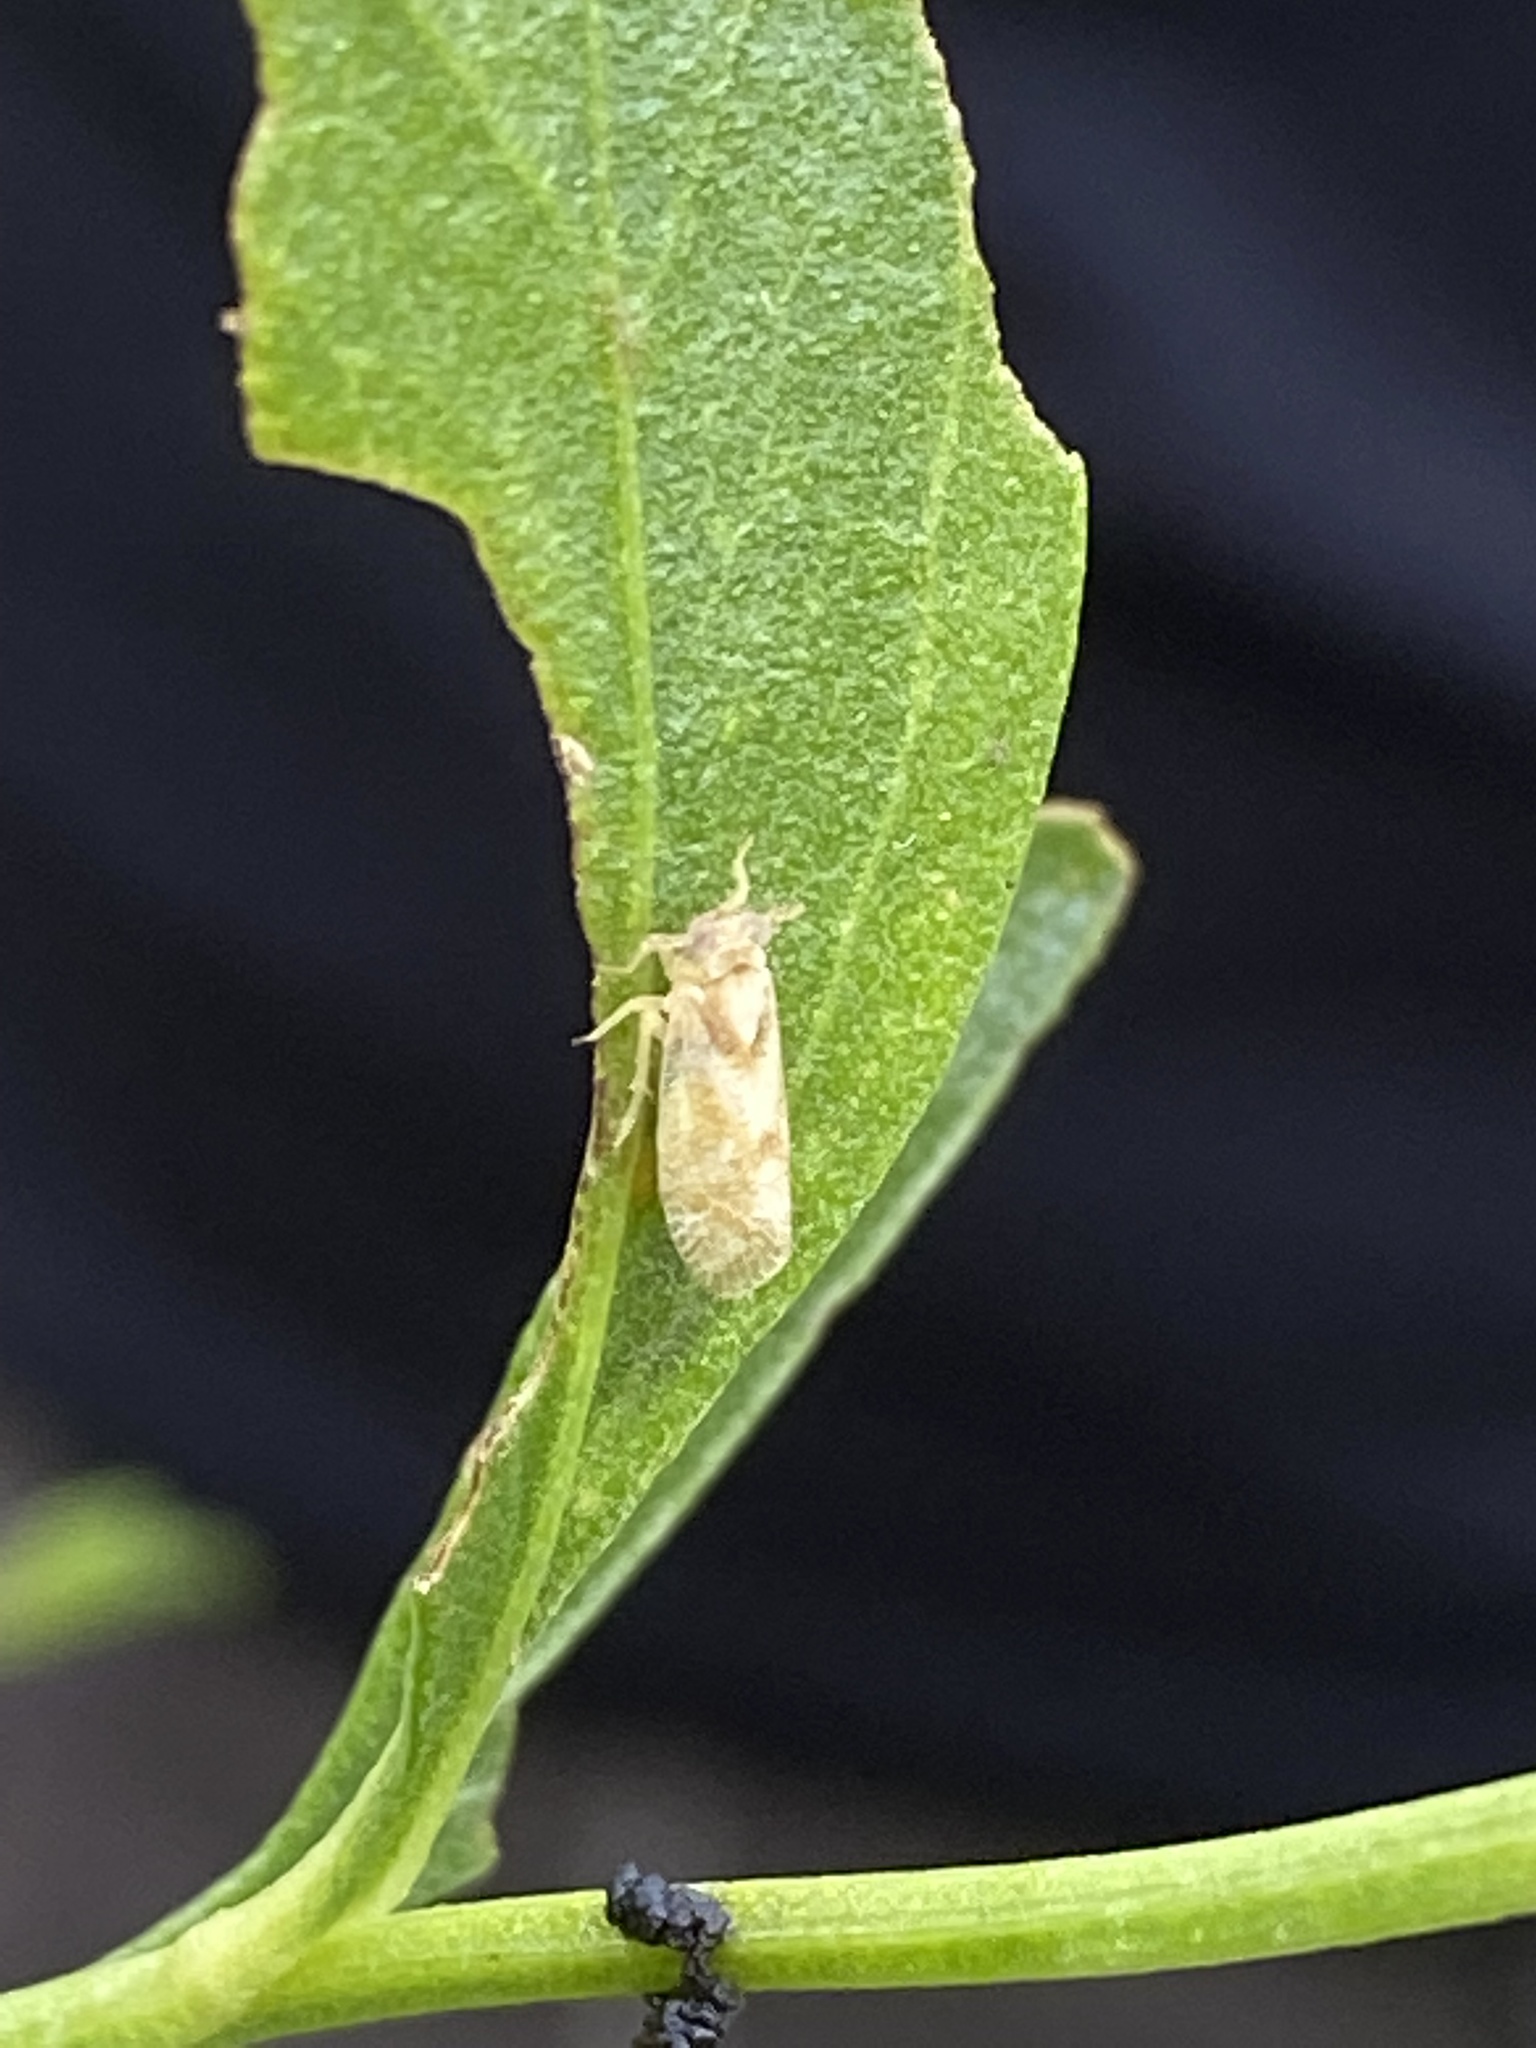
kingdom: Animalia
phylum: Arthropoda
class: Insecta
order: Hemiptera
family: Delphacidae
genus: Stobaera
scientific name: Stobaera pallida
